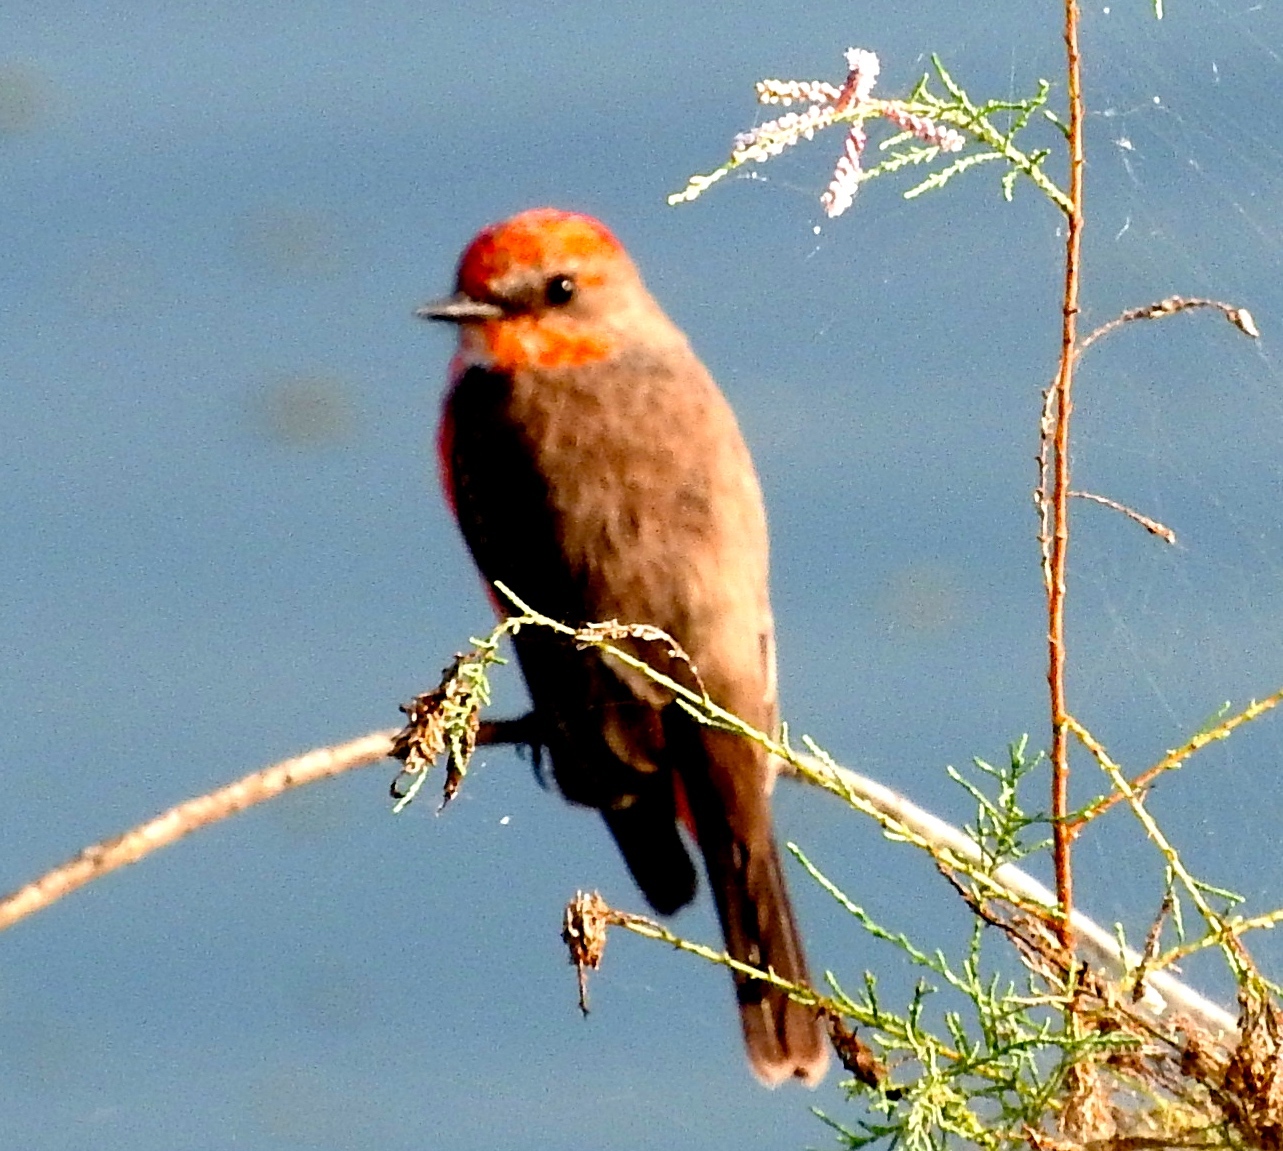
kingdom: Animalia
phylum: Chordata
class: Aves
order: Passeriformes
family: Tyrannidae
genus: Pyrocephalus
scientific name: Pyrocephalus rubinus
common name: Vermilion flycatcher
